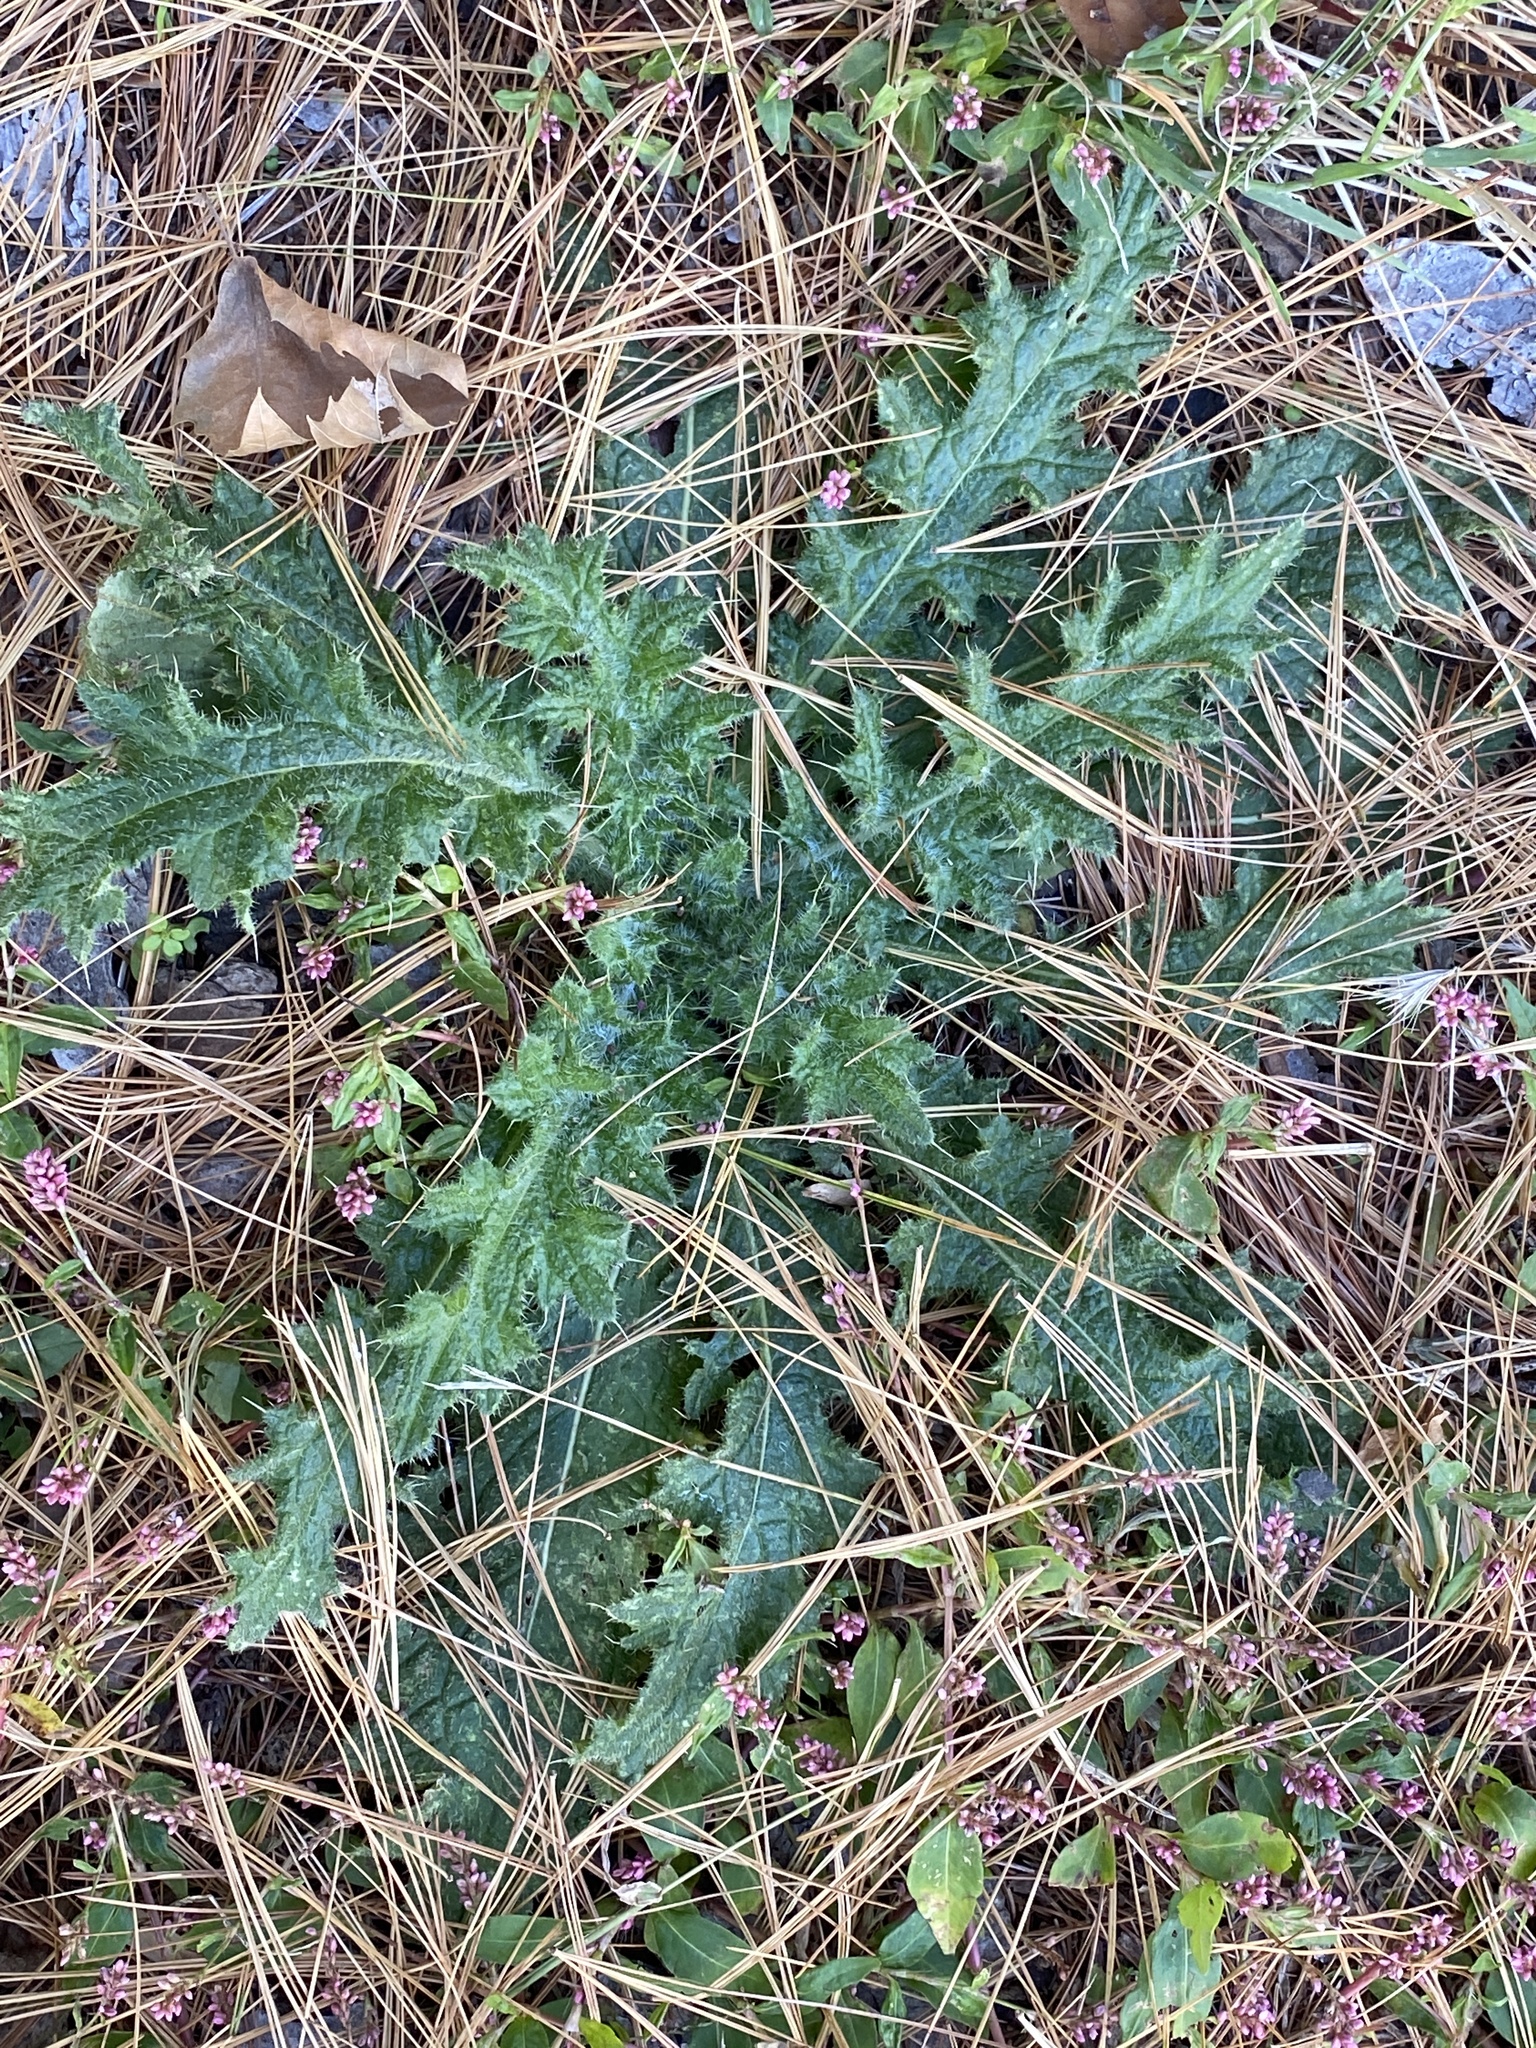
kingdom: Plantae
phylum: Tracheophyta
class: Magnoliopsida
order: Asterales
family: Asteraceae
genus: Cirsium
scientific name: Cirsium vulgare
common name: Bull thistle
